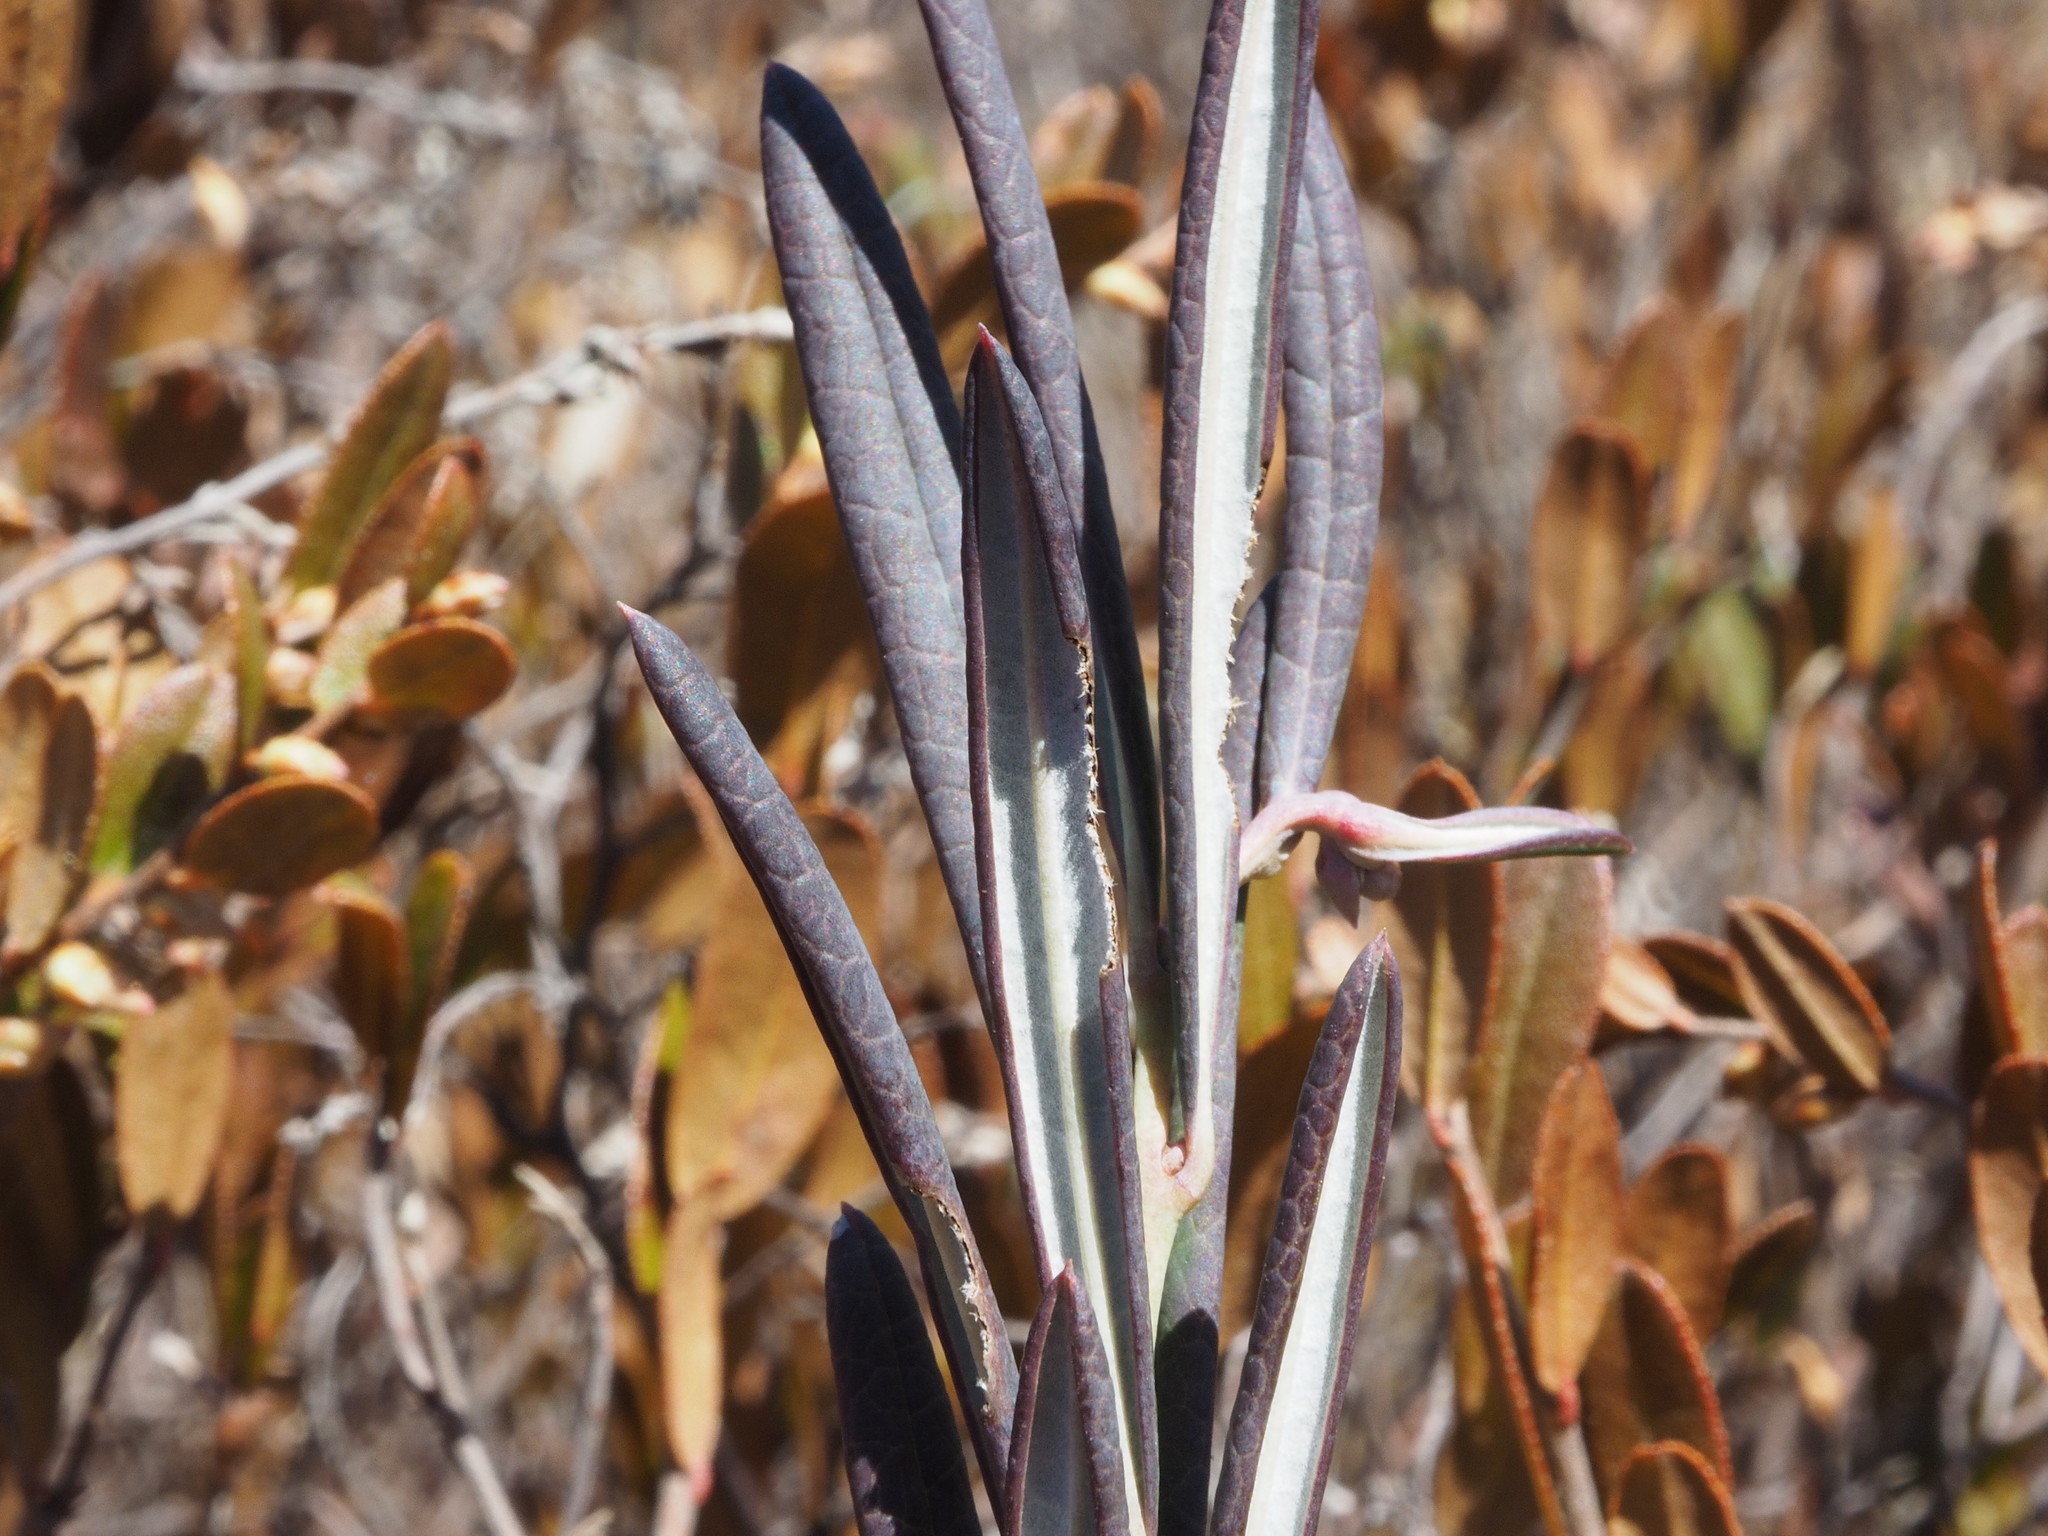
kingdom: Plantae
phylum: Tracheophyta
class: Magnoliopsida
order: Ericales
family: Ericaceae
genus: Andromeda
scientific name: Andromeda polifolia
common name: Bog-rosemary
